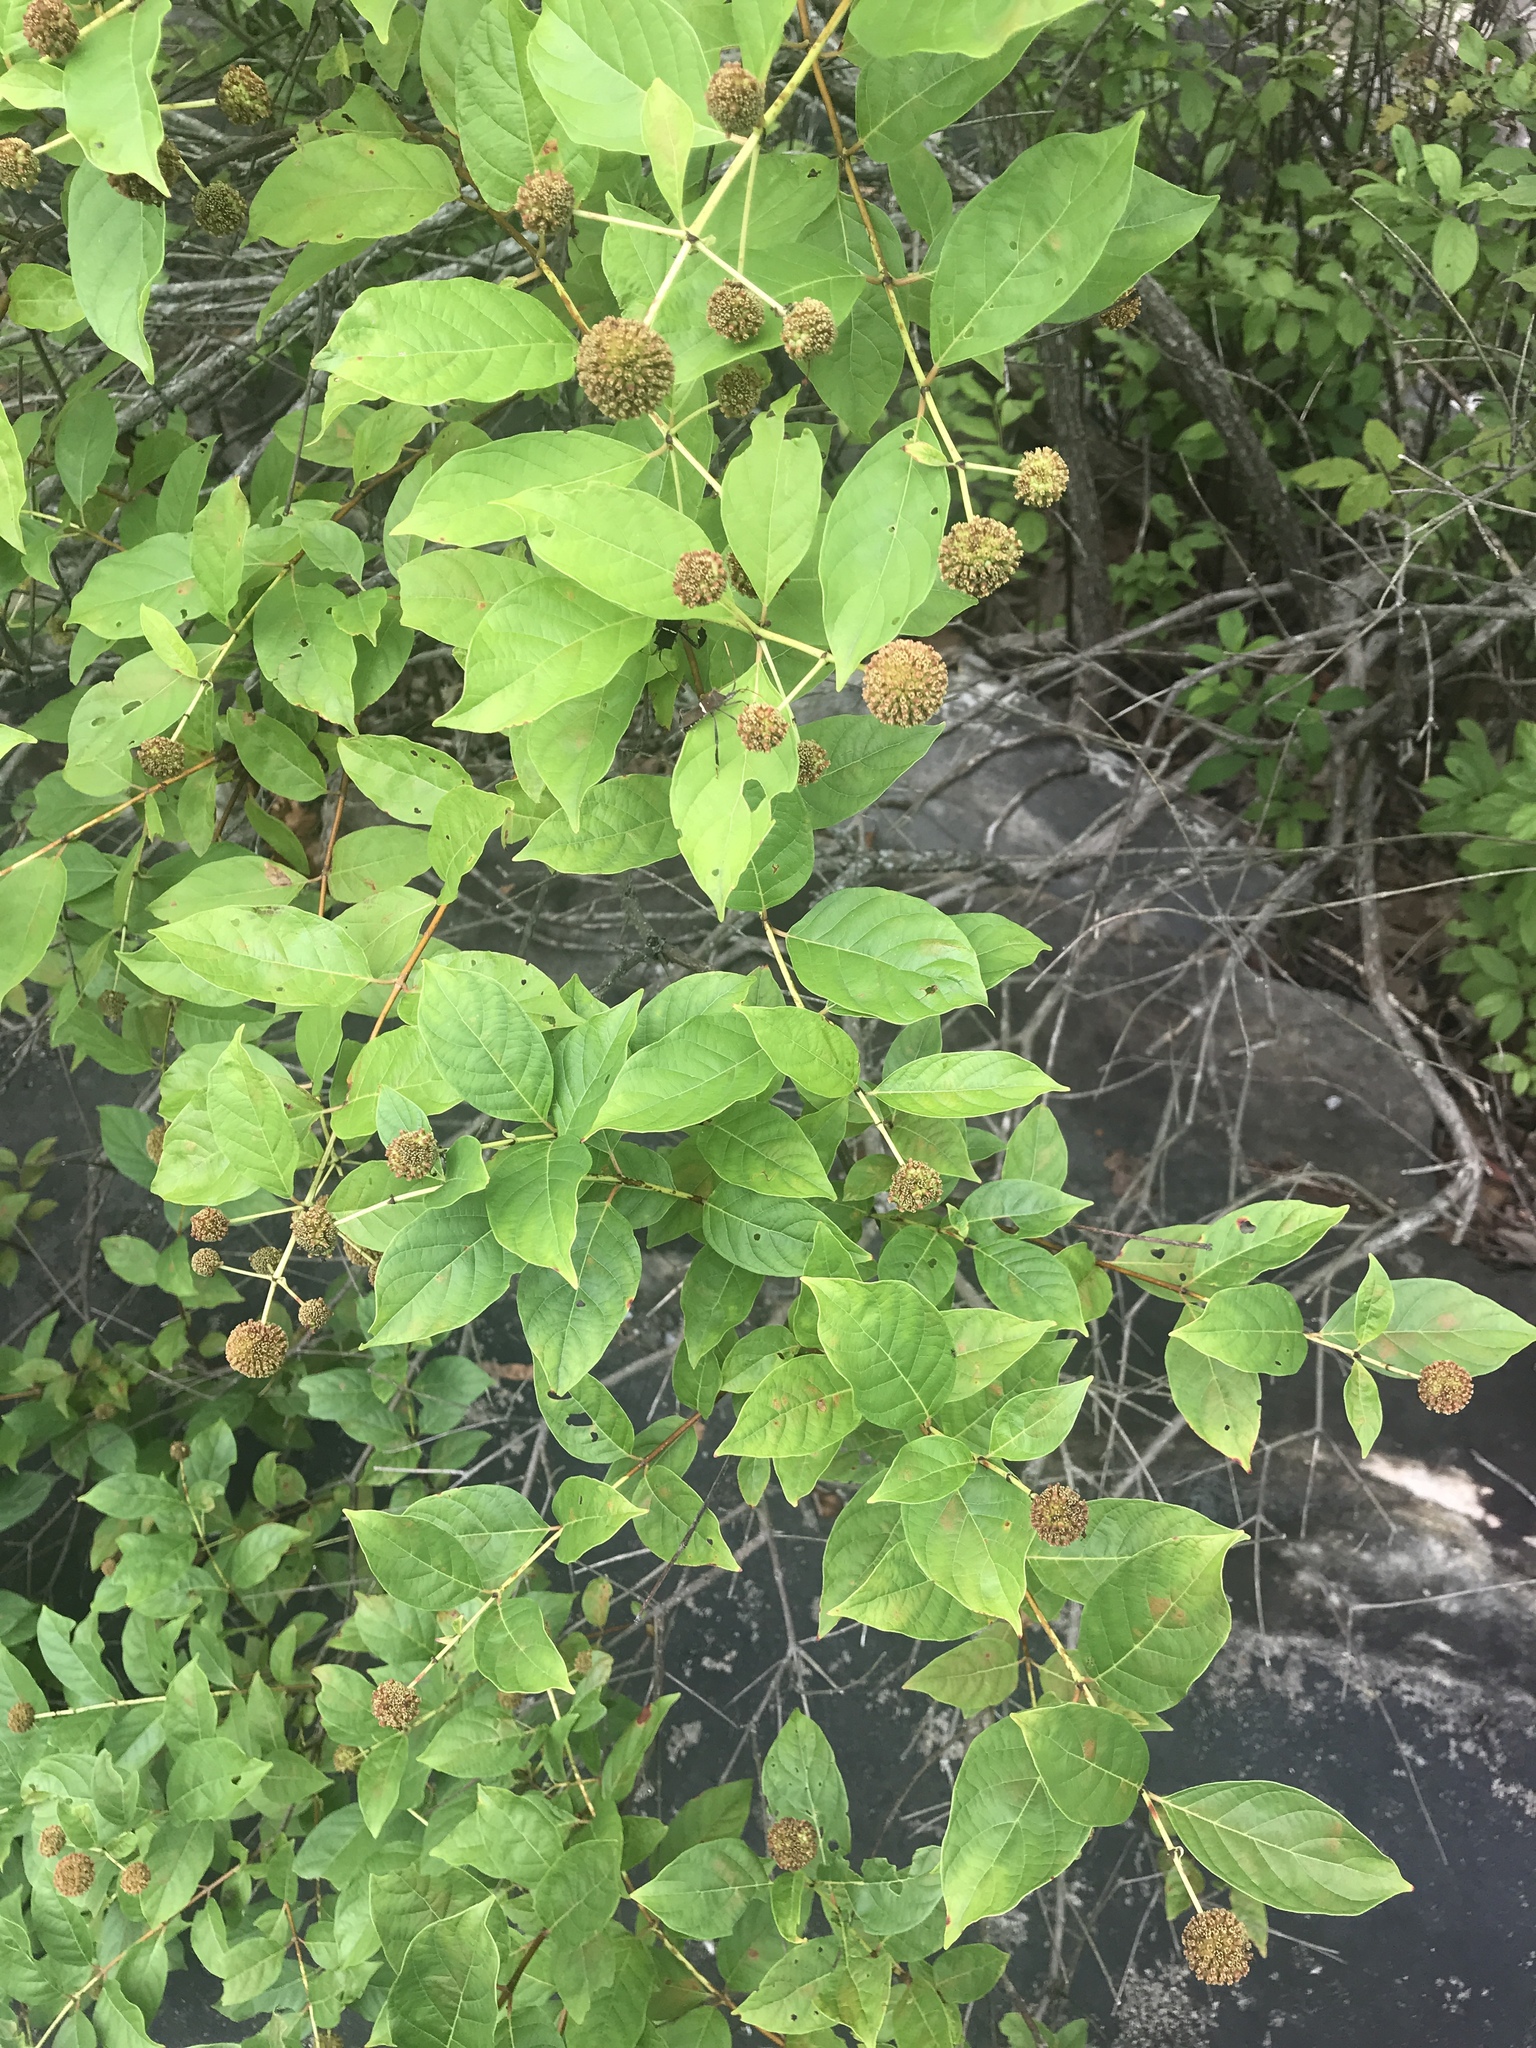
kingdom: Plantae
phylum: Tracheophyta
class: Magnoliopsida
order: Gentianales
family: Rubiaceae
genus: Cephalanthus
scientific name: Cephalanthus occidentalis
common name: Button-willow
